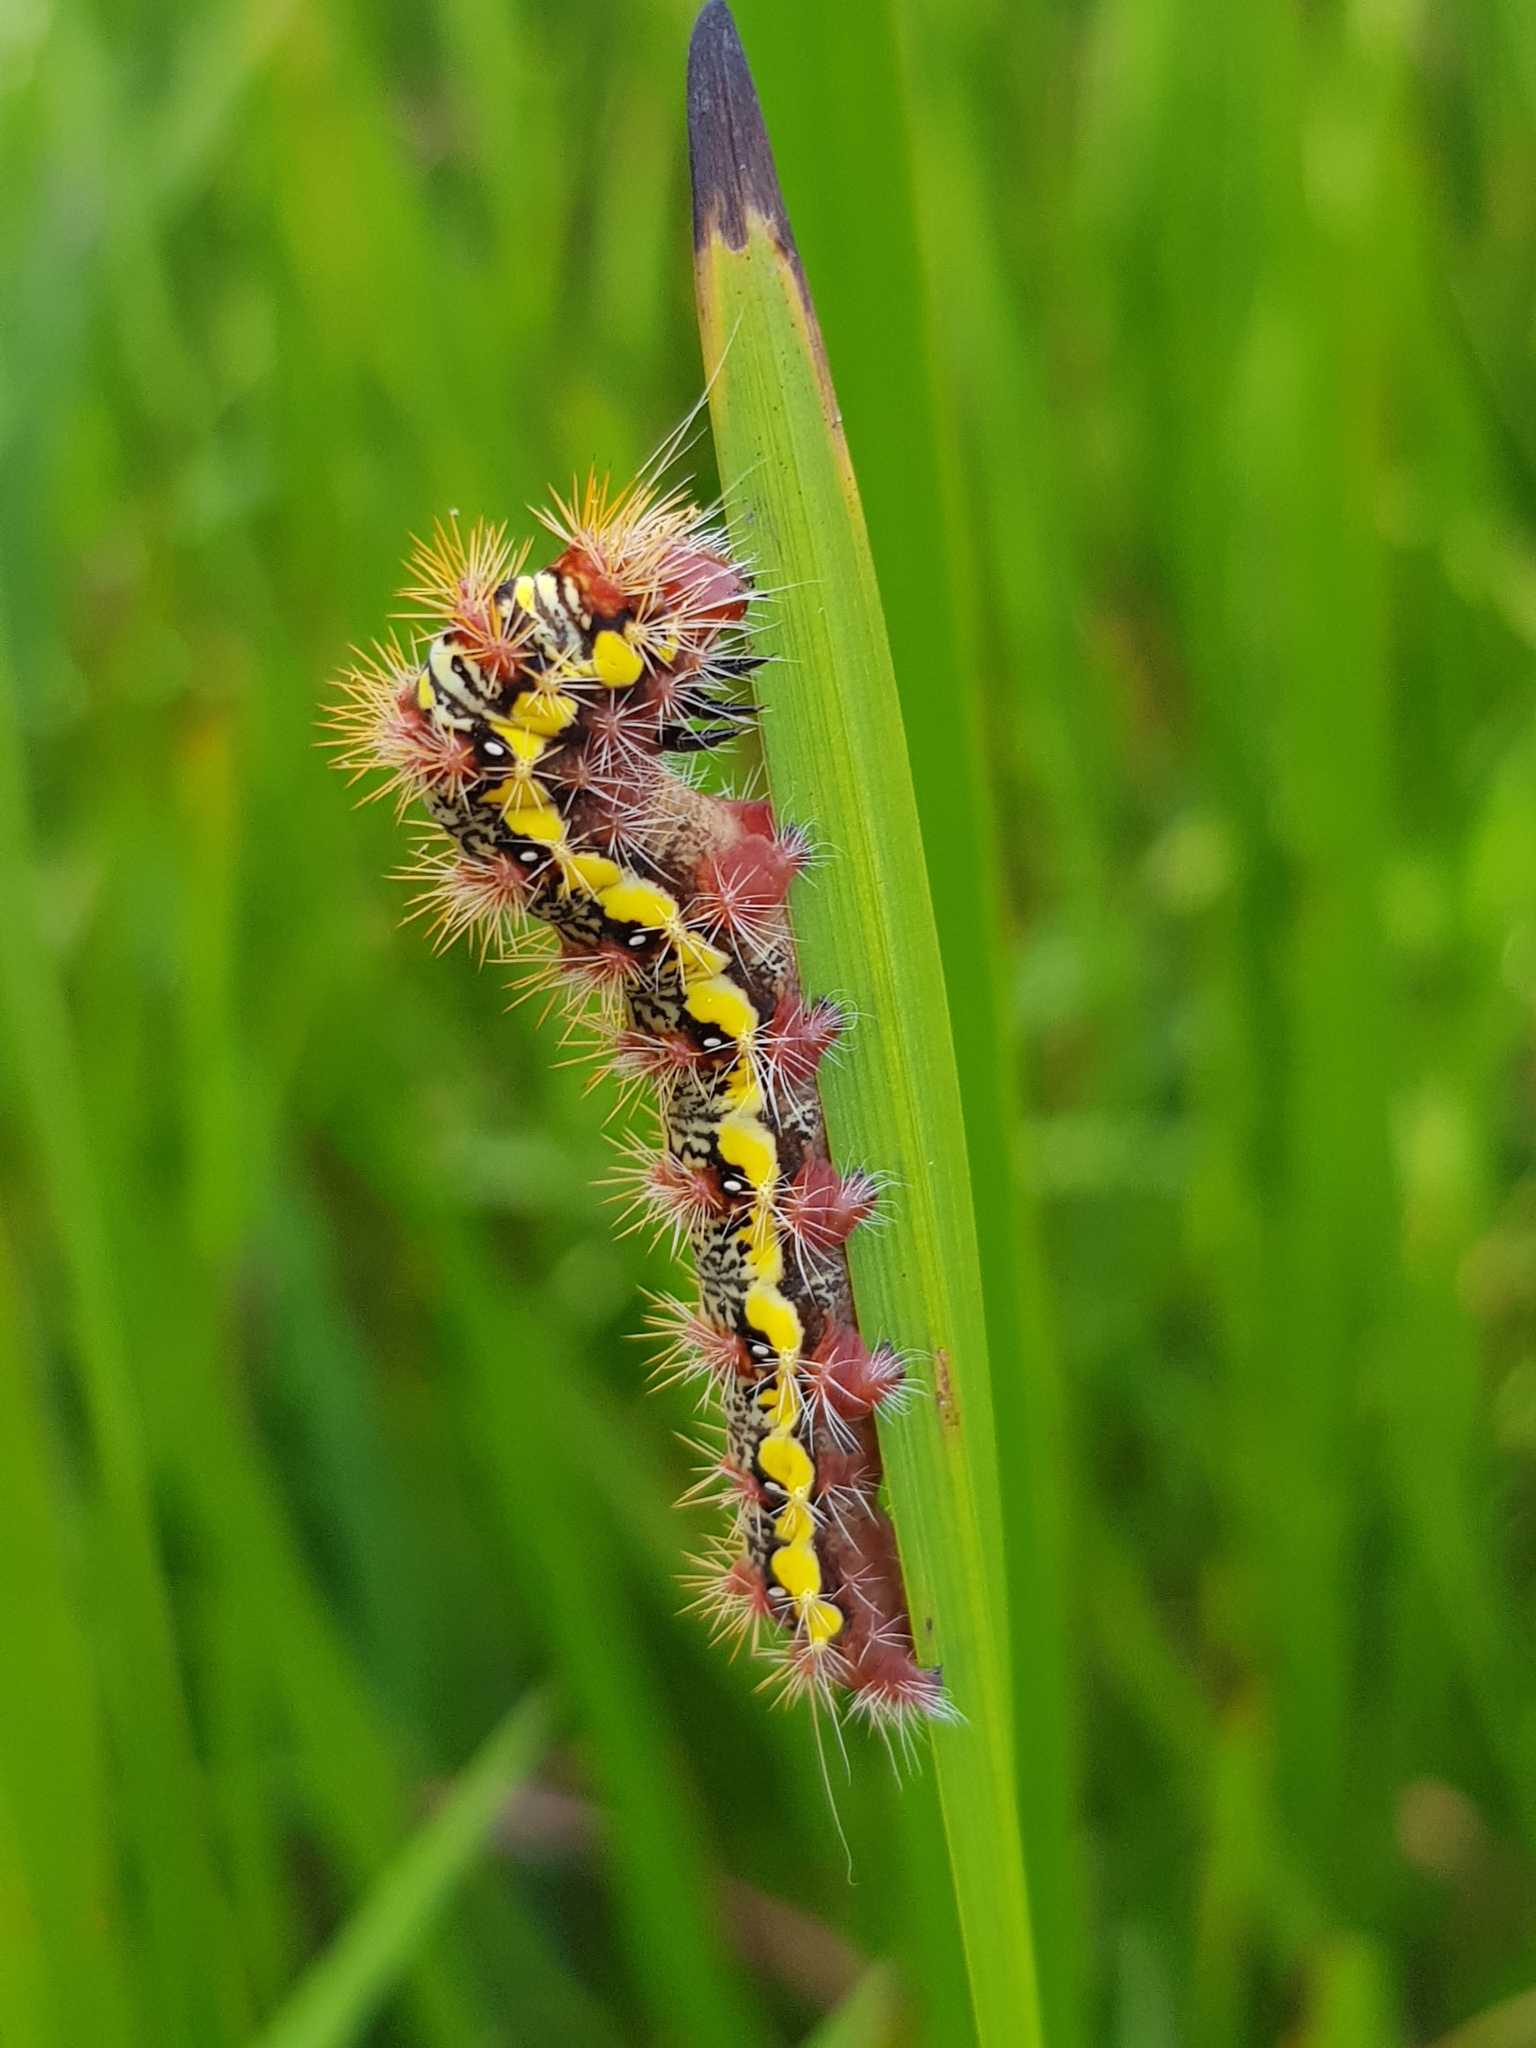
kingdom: Animalia
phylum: Arthropoda
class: Insecta
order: Lepidoptera
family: Noctuidae
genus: Acronicta
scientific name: Acronicta oblinita
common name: Smeared dagger
